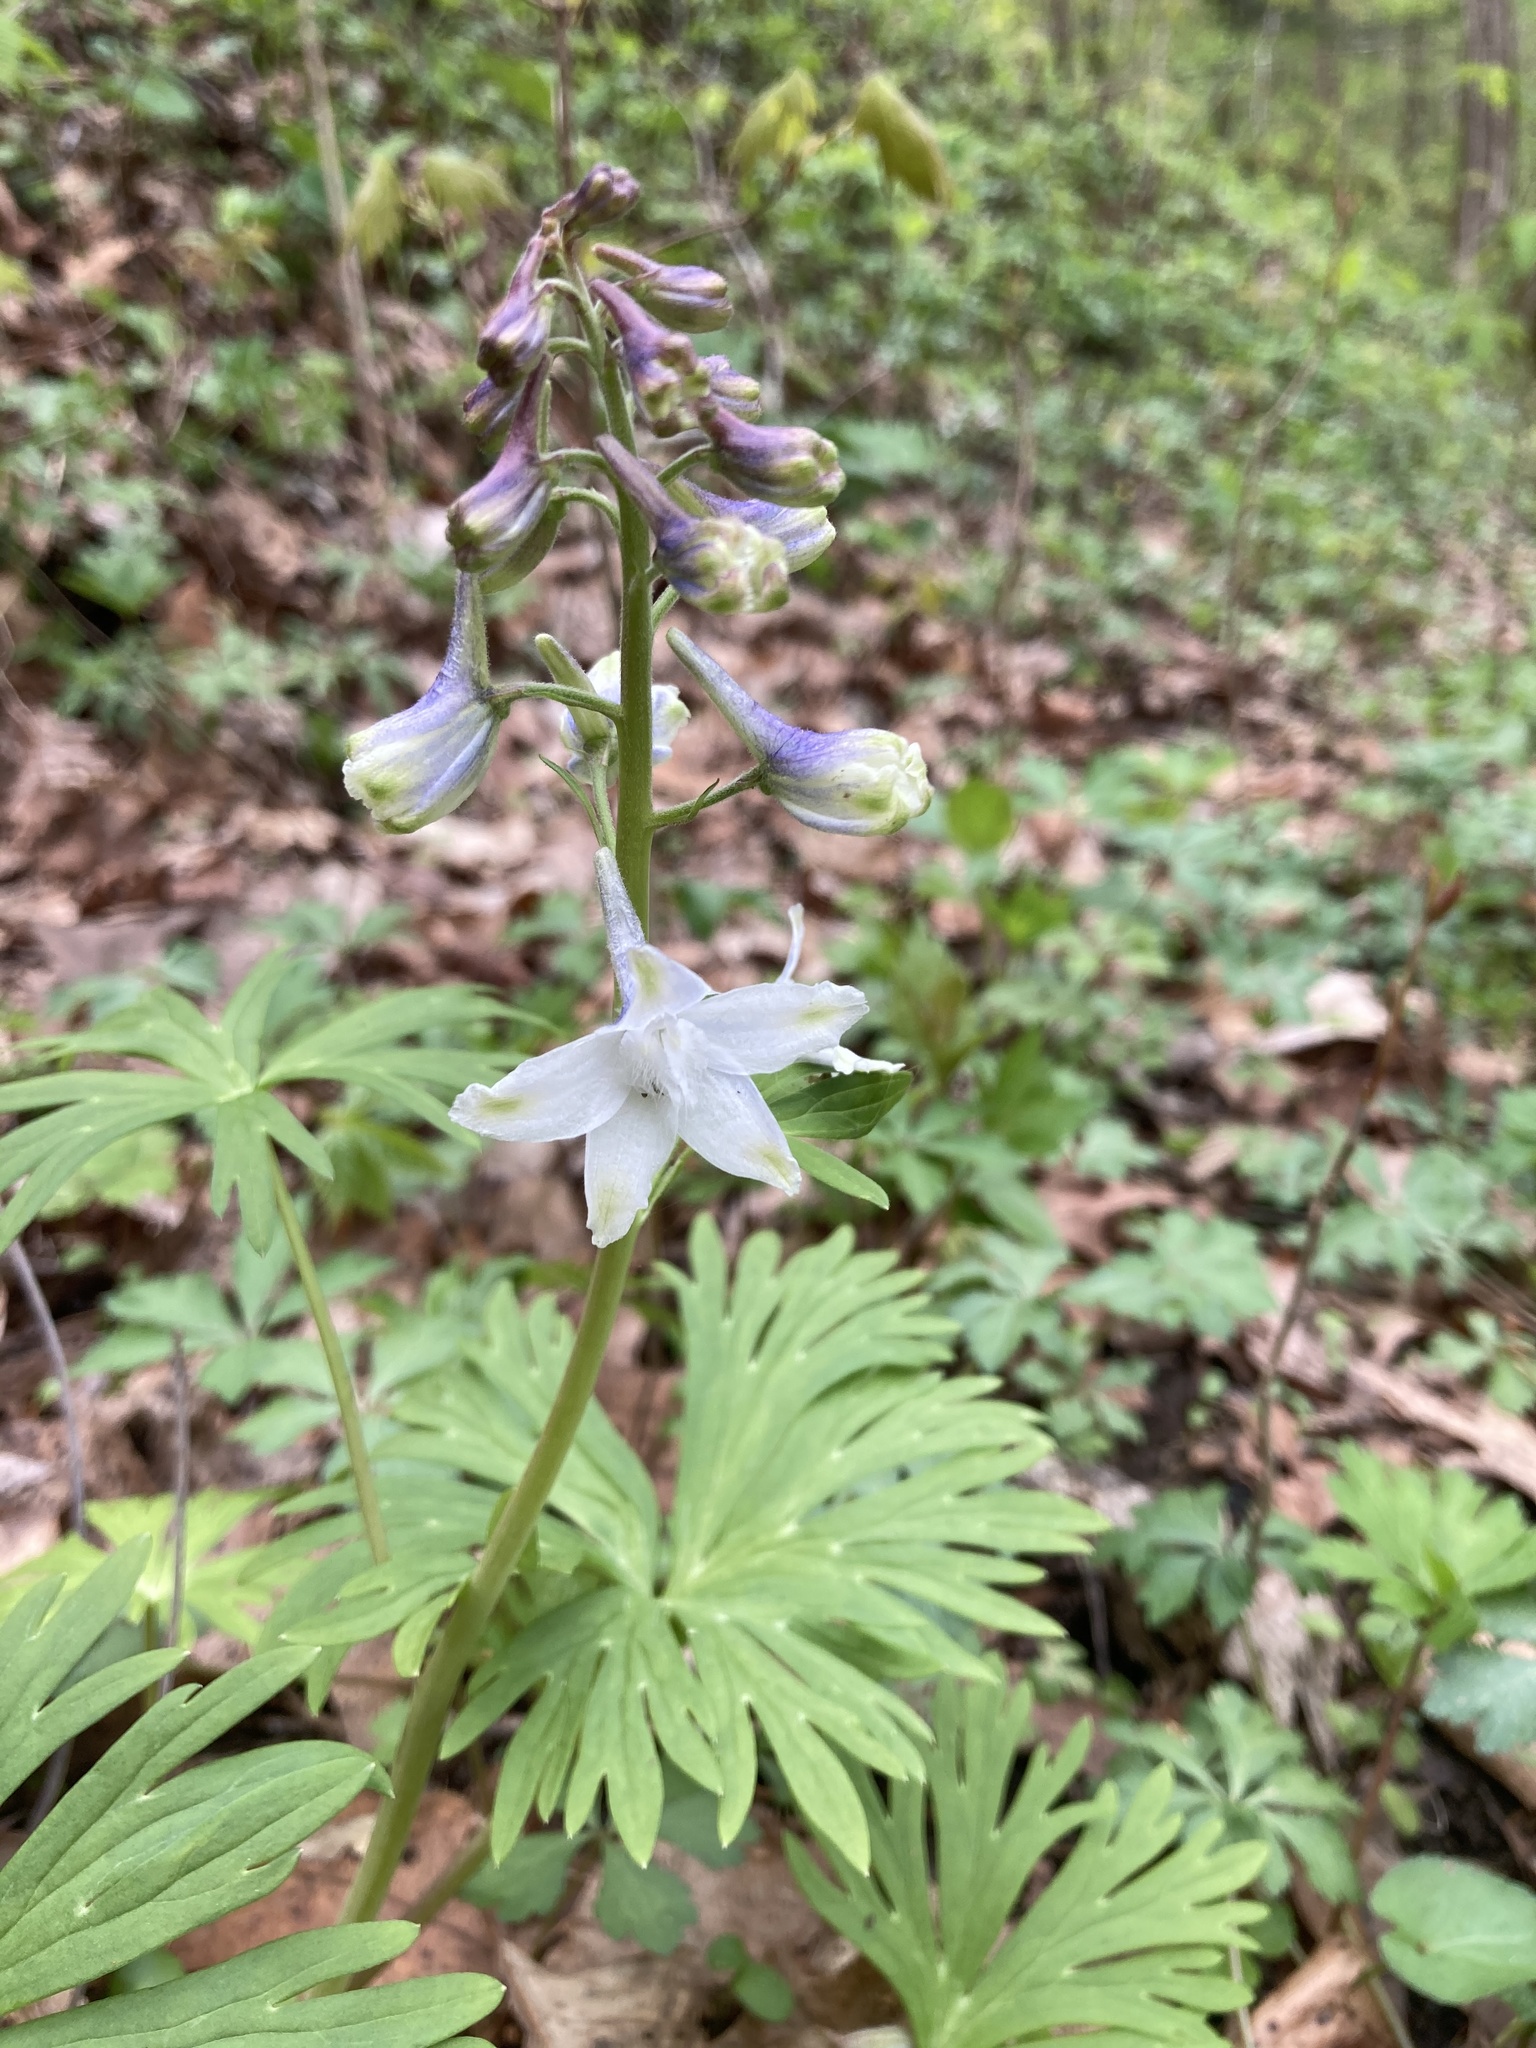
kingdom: Plantae
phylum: Tracheophyta
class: Magnoliopsida
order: Ranunculales
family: Ranunculaceae
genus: Delphinium
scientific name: Delphinium tricorne
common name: Dwarf larkspur
